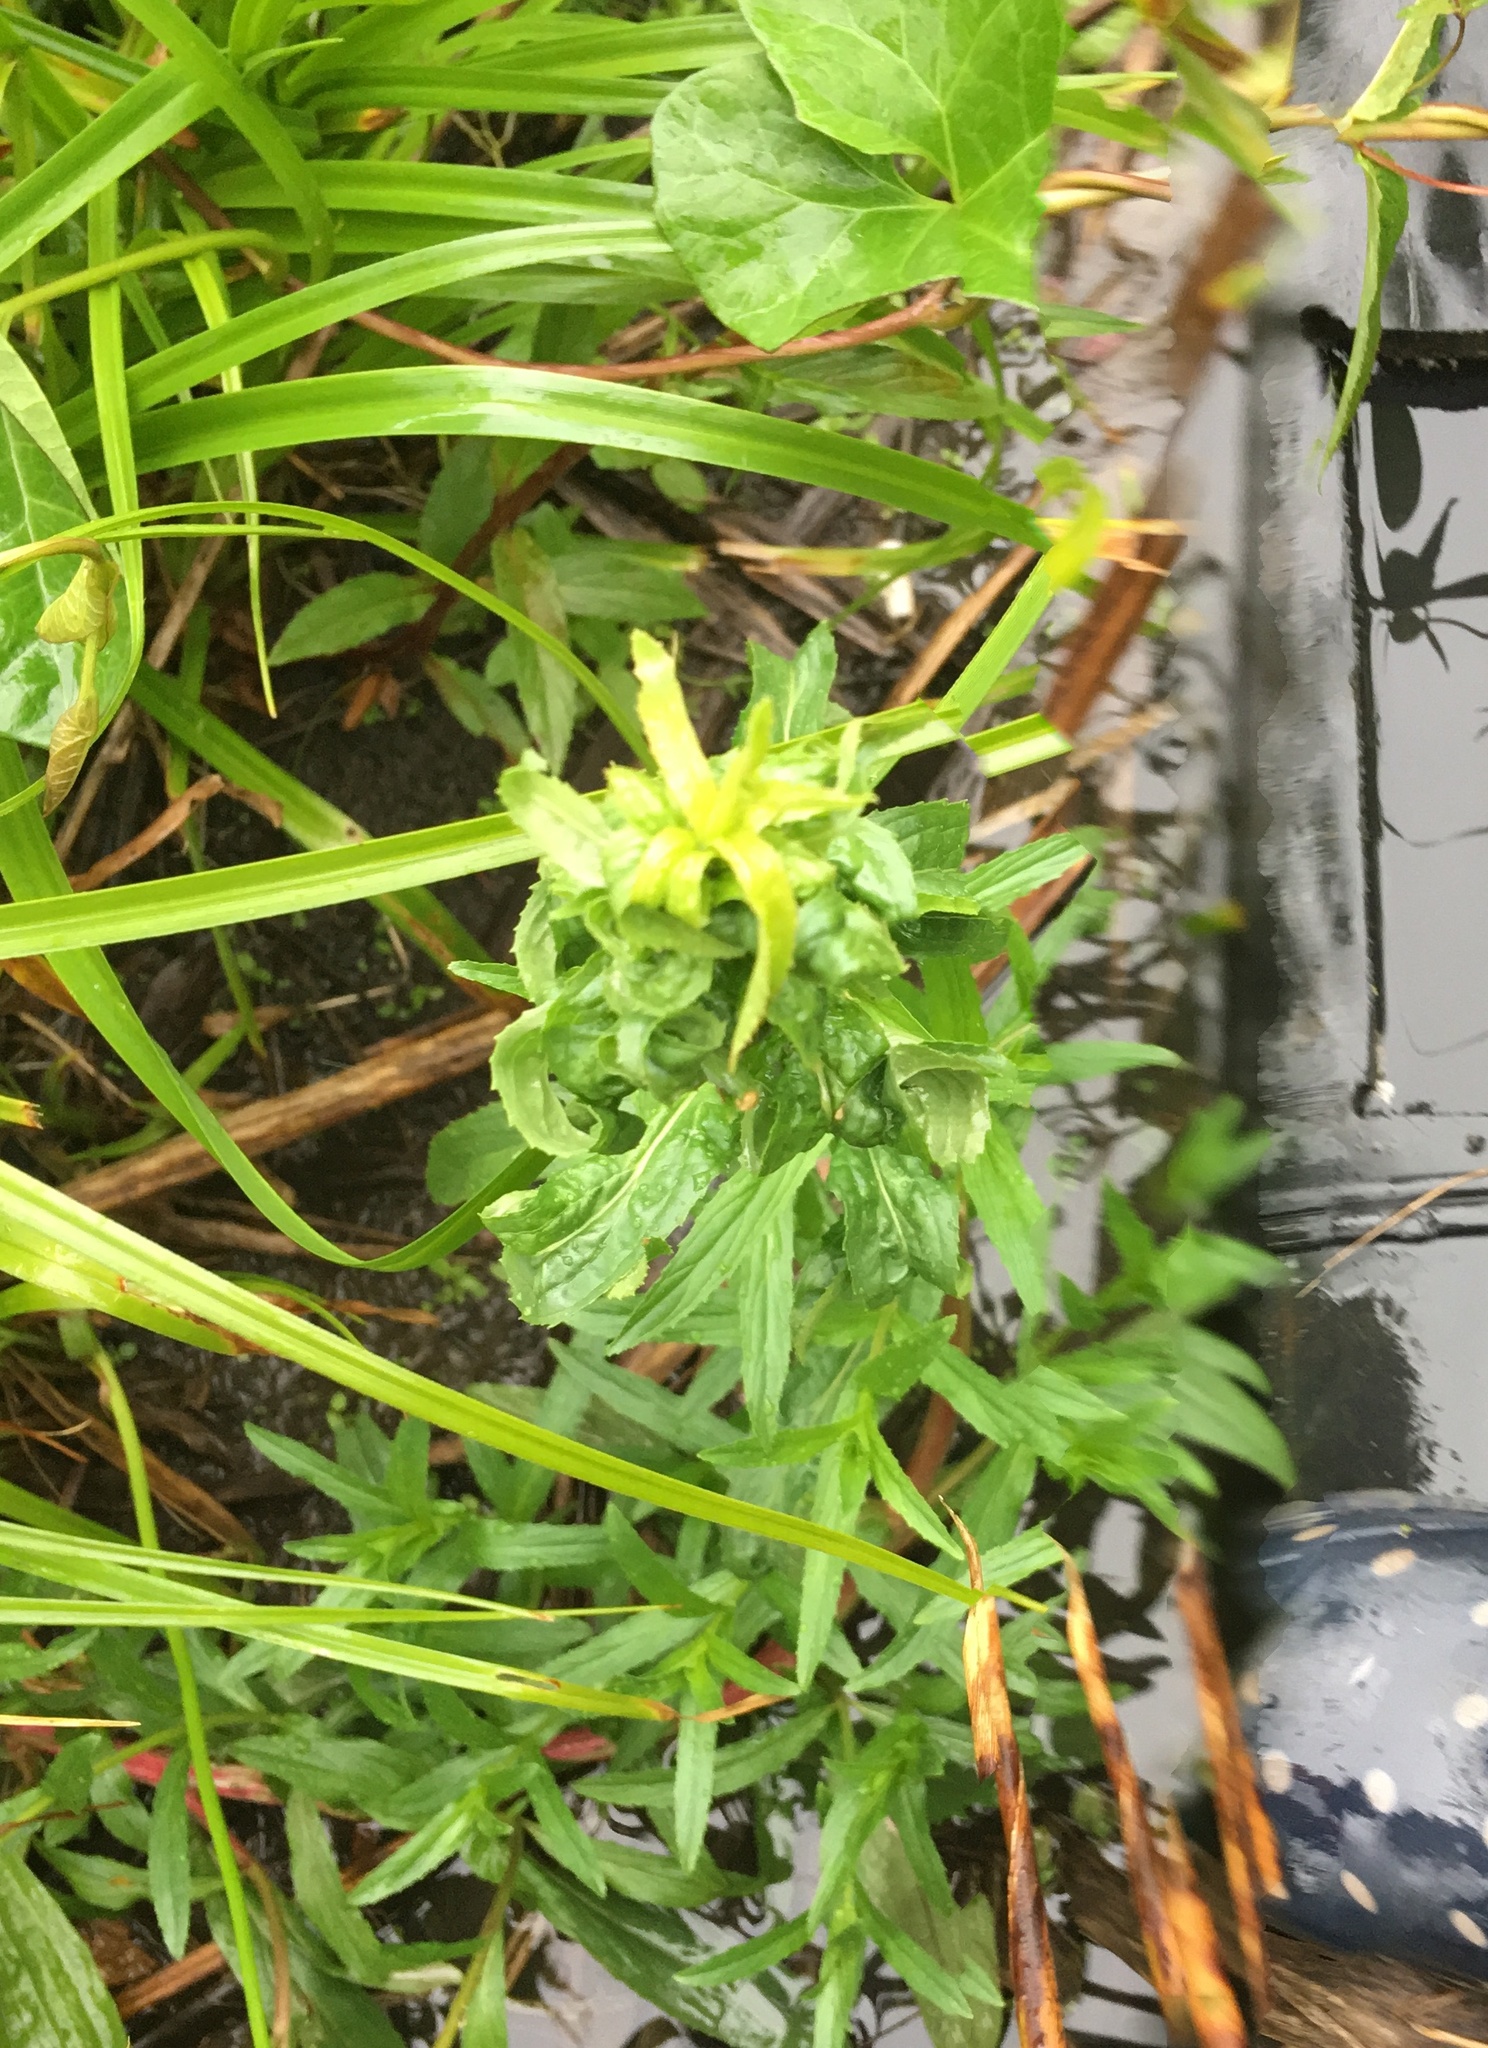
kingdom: Plantae
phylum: Tracheophyta
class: Magnoliopsida
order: Gentianales
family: Apocynaceae
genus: Vinca
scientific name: Vinca major
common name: Greater periwinkle
